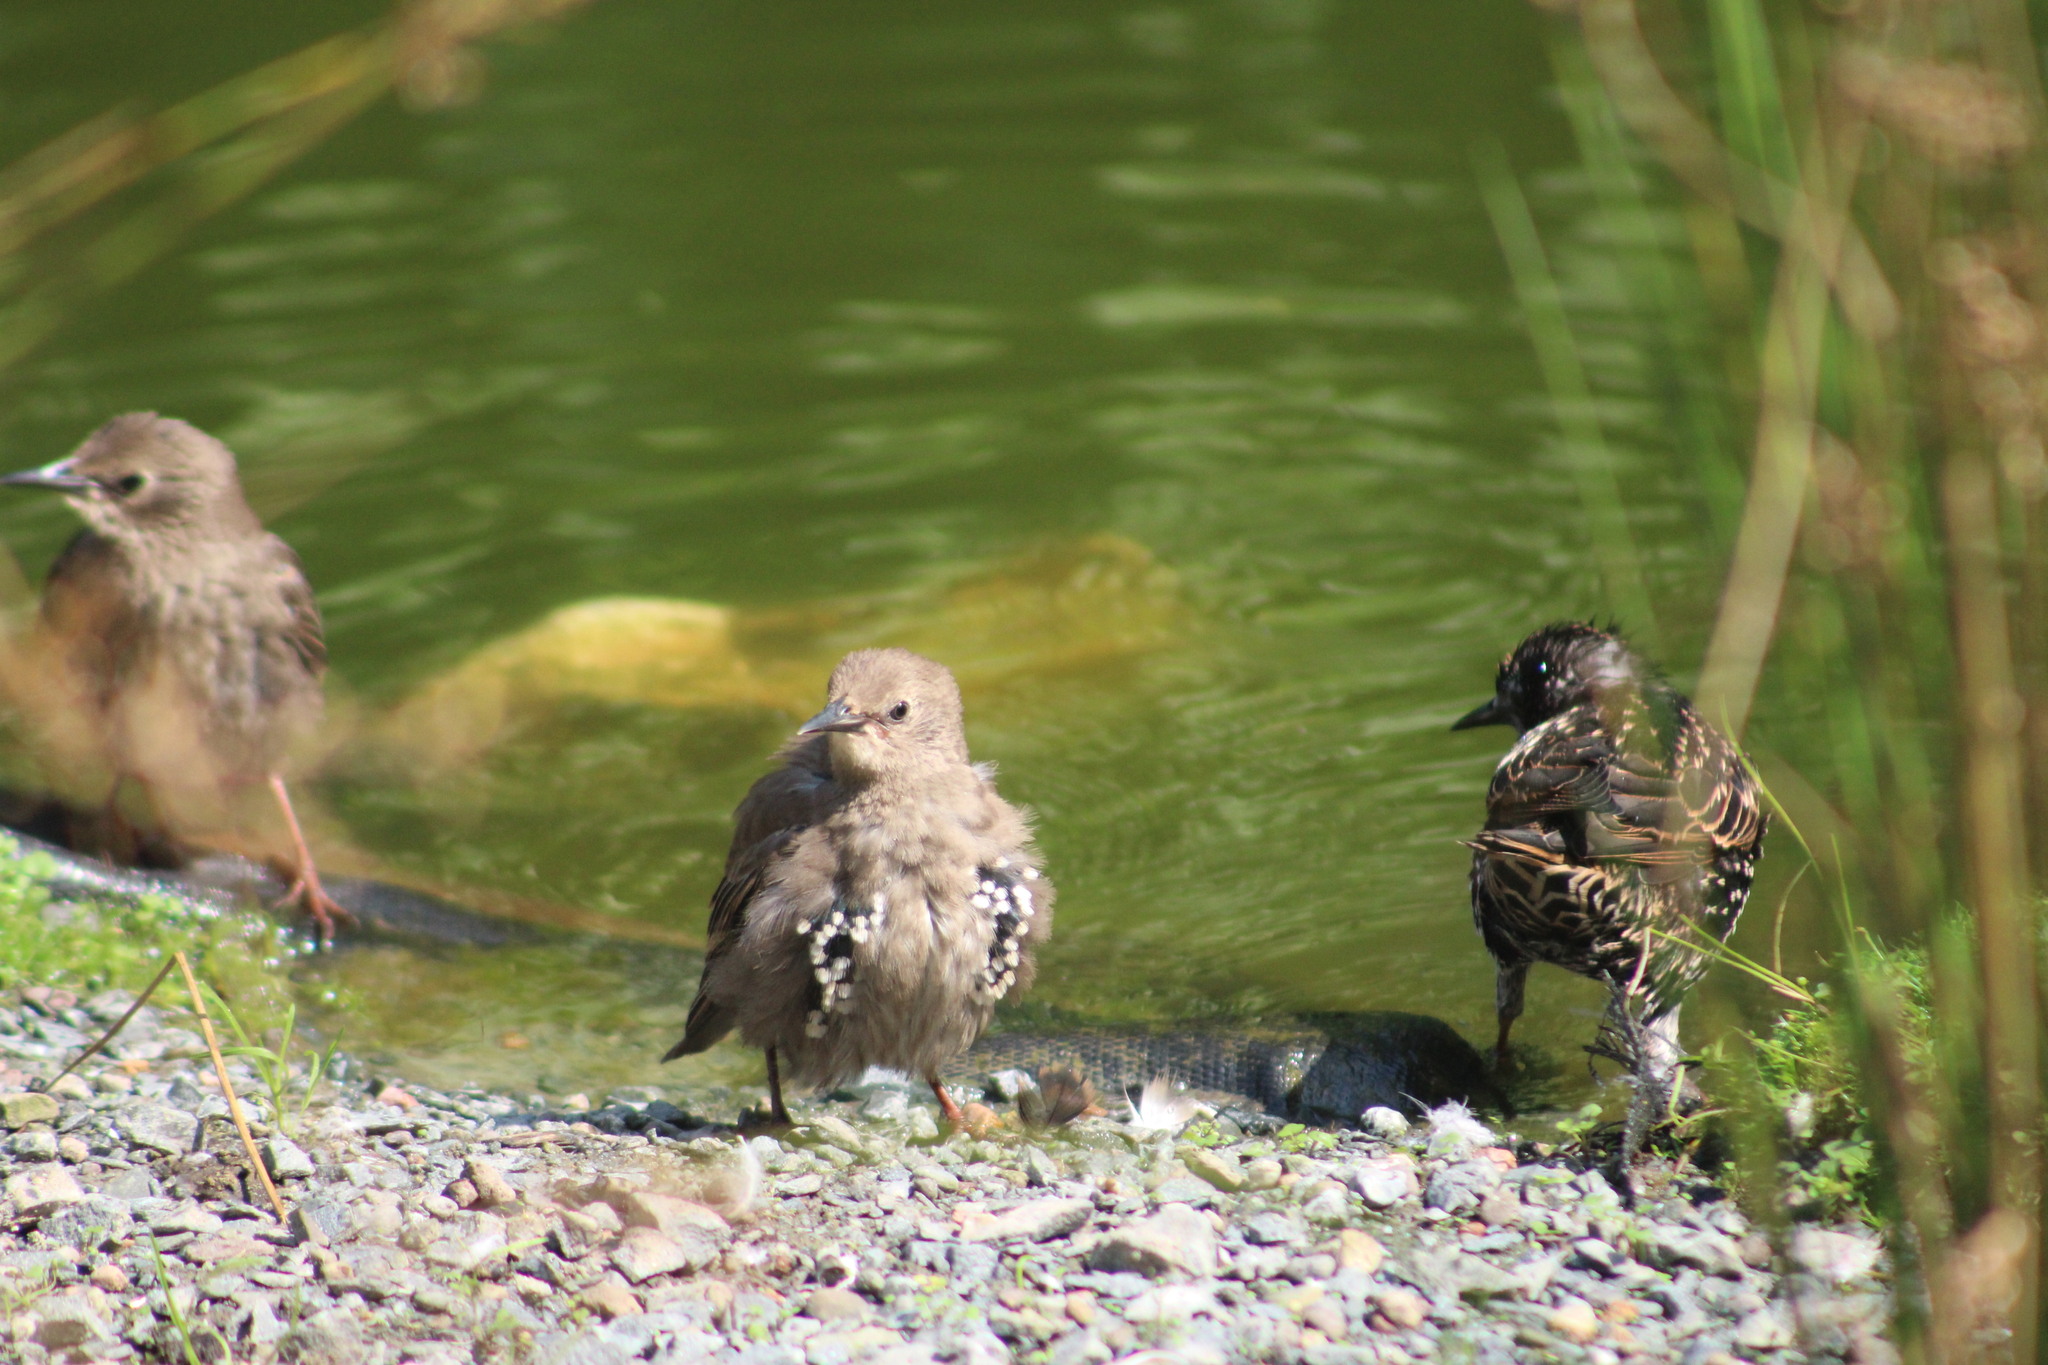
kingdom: Animalia
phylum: Chordata
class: Aves
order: Passeriformes
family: Sturnidae
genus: Sturnus
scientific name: Sturnus vulgaris
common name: Common starling
